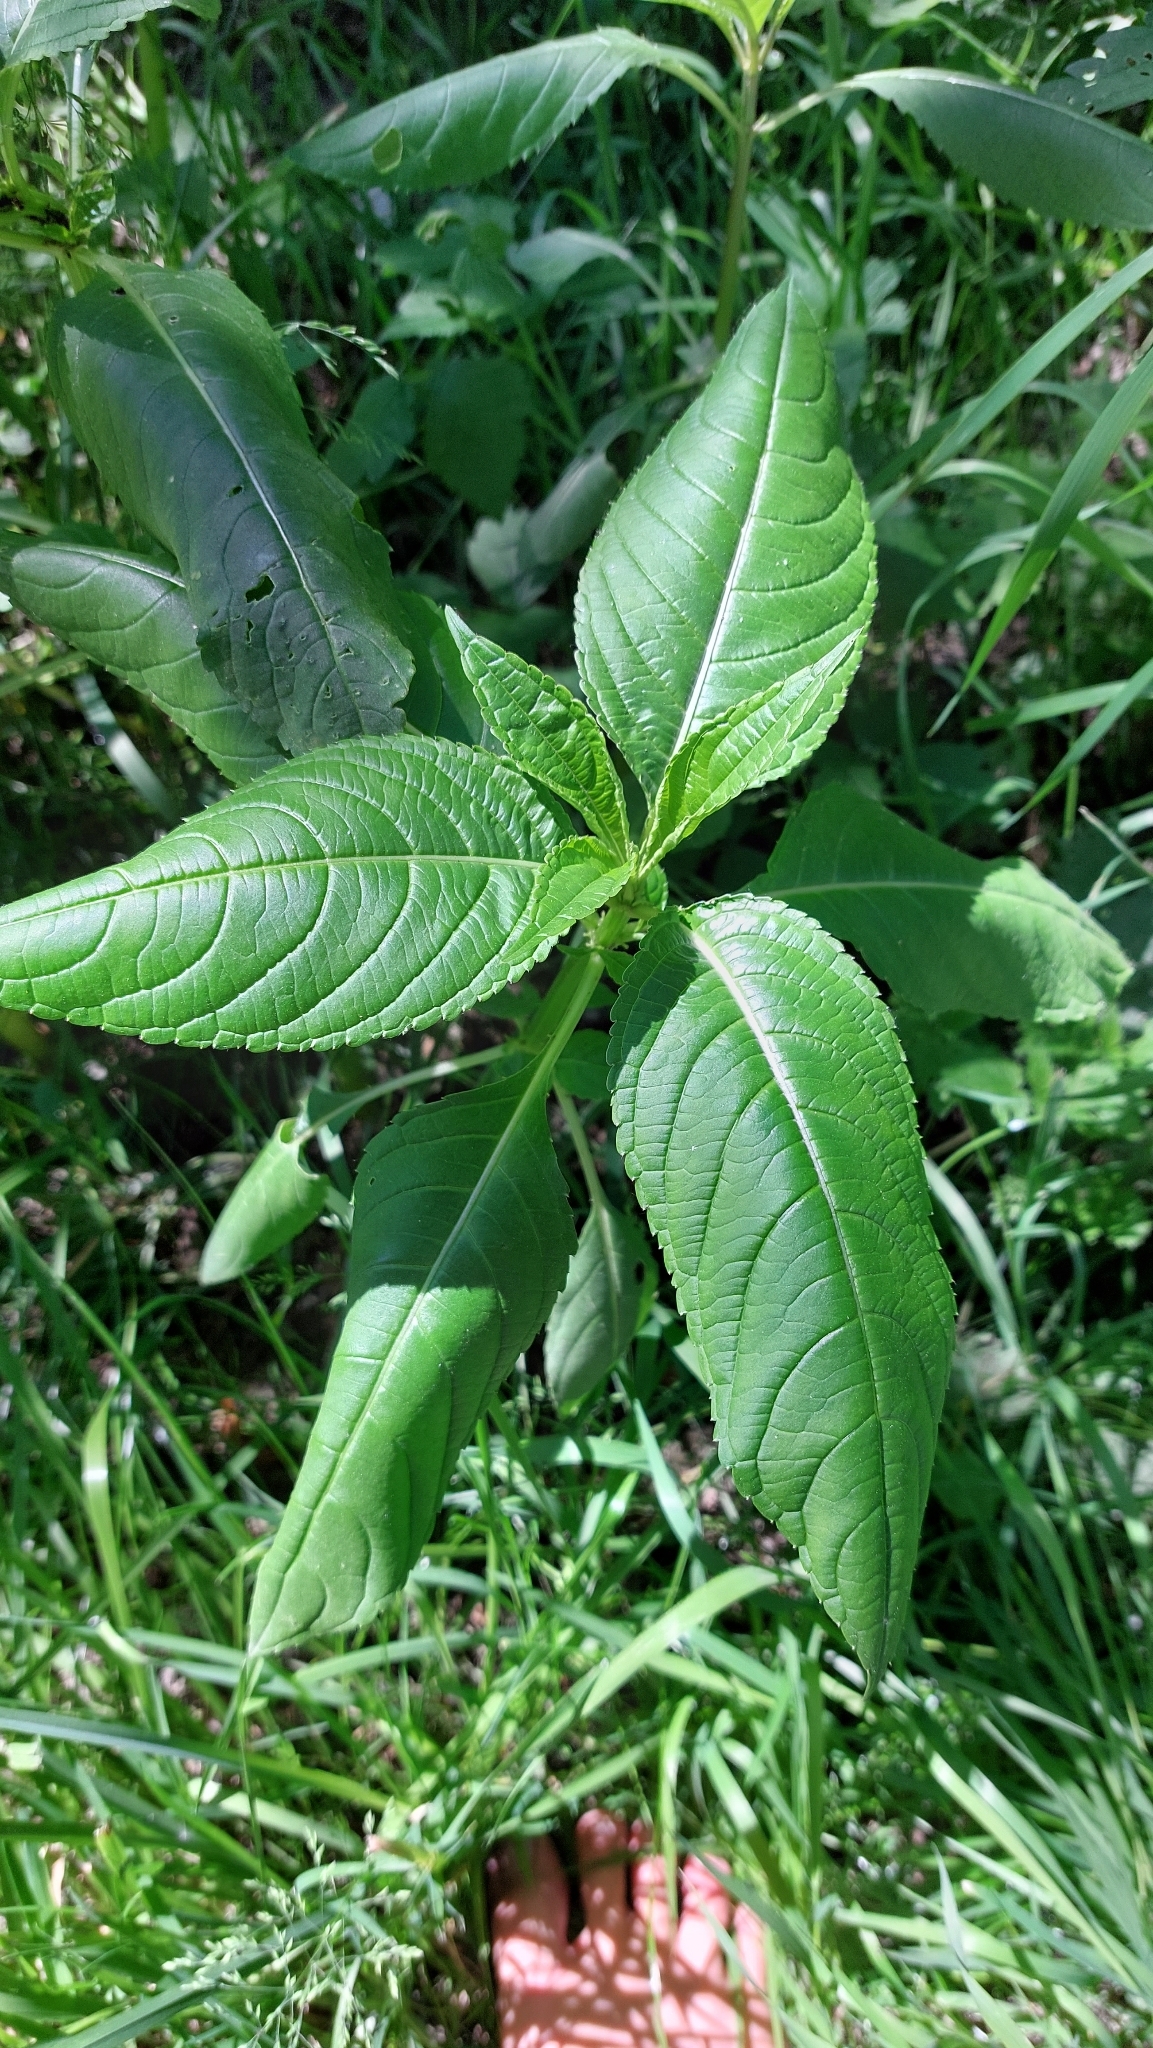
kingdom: Plantae
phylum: Tracheophyta
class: Magnoliopsida
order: Ericales
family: Balsaminaceae
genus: Impatiens
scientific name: Impatiens glandulifera
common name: Himalayan balsam
